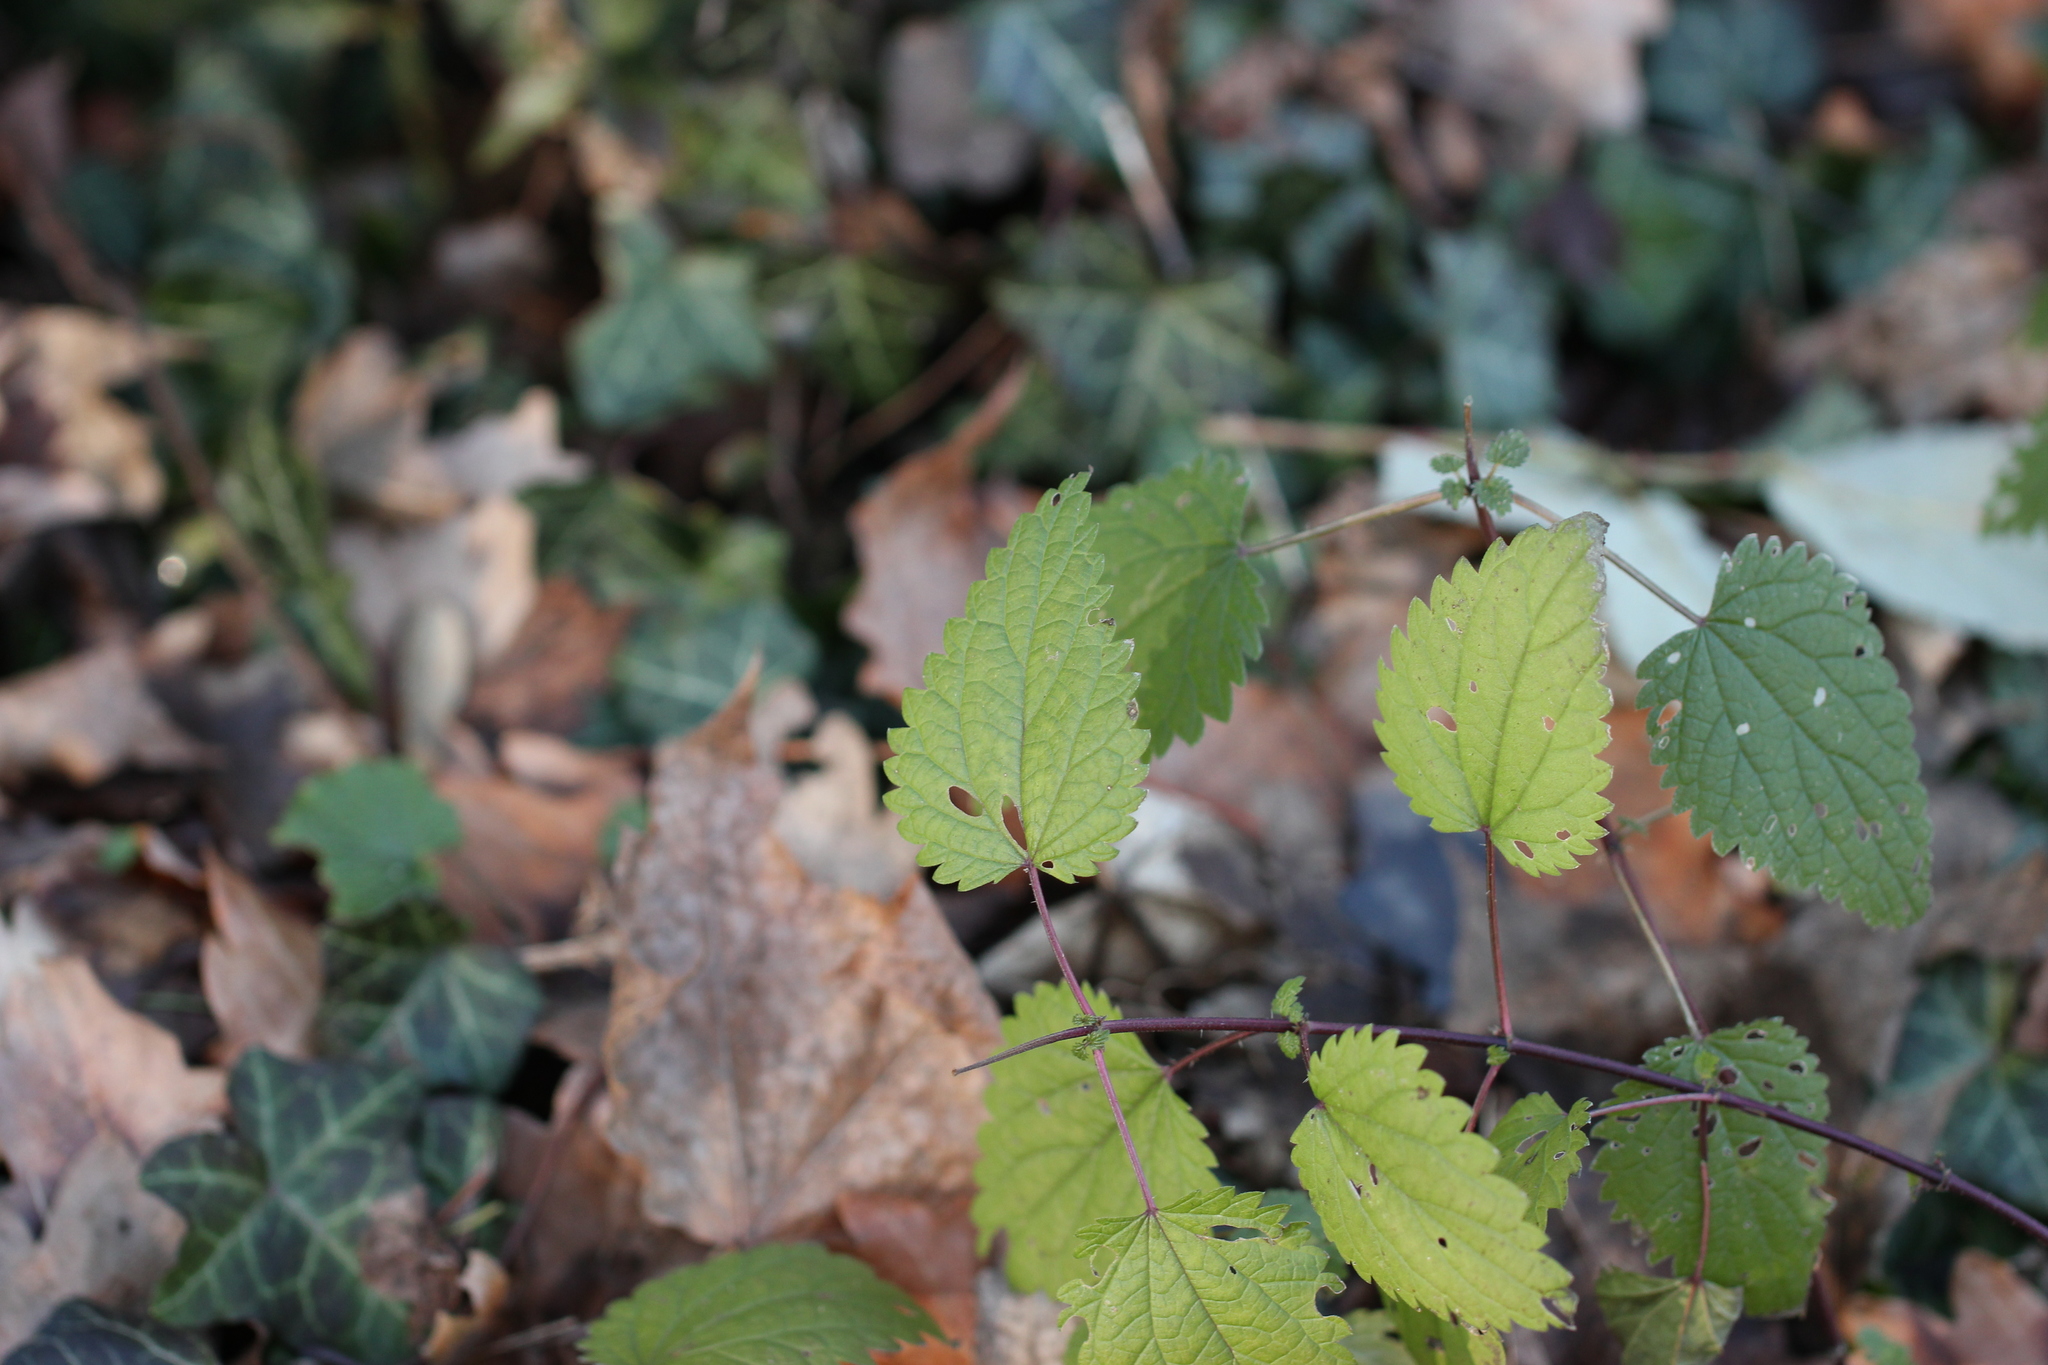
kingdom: Plantae
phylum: Tracheophyta
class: Magnoliopsida
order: Rosales
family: Urticaceae
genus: Urtica
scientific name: Urtica dioica
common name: Common nettle
